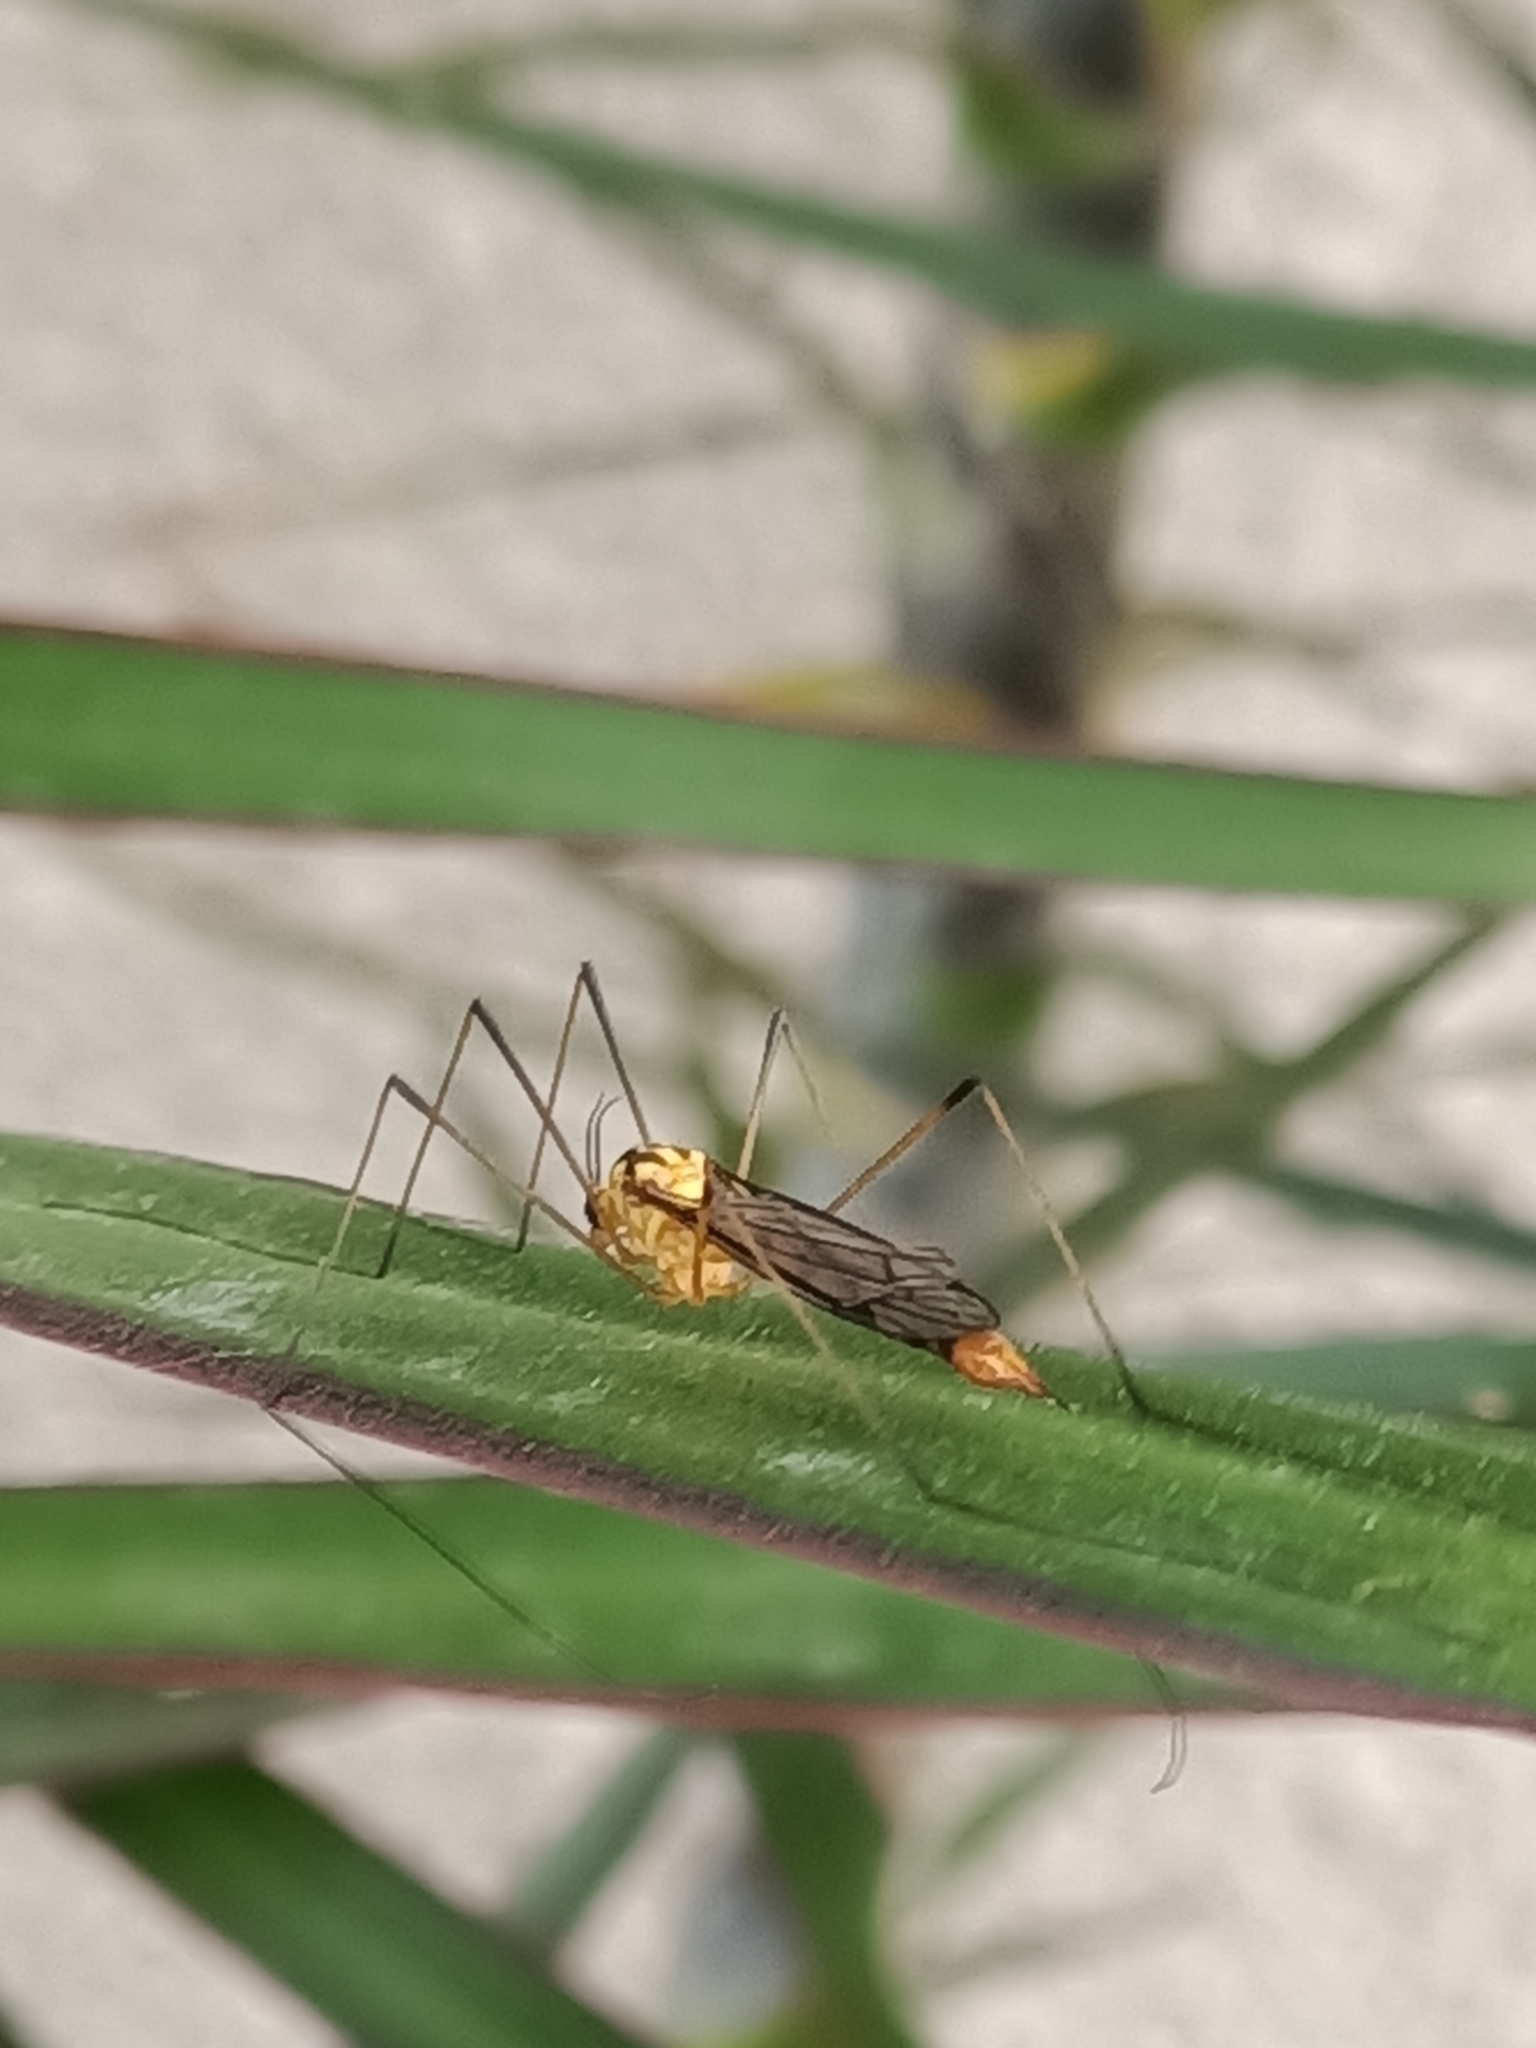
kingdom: Animalia
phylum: Arthropoda
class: Insecta
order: Diptera
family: Tipulidae
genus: Nephrotoma
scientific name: Nephrotoma australasiae
